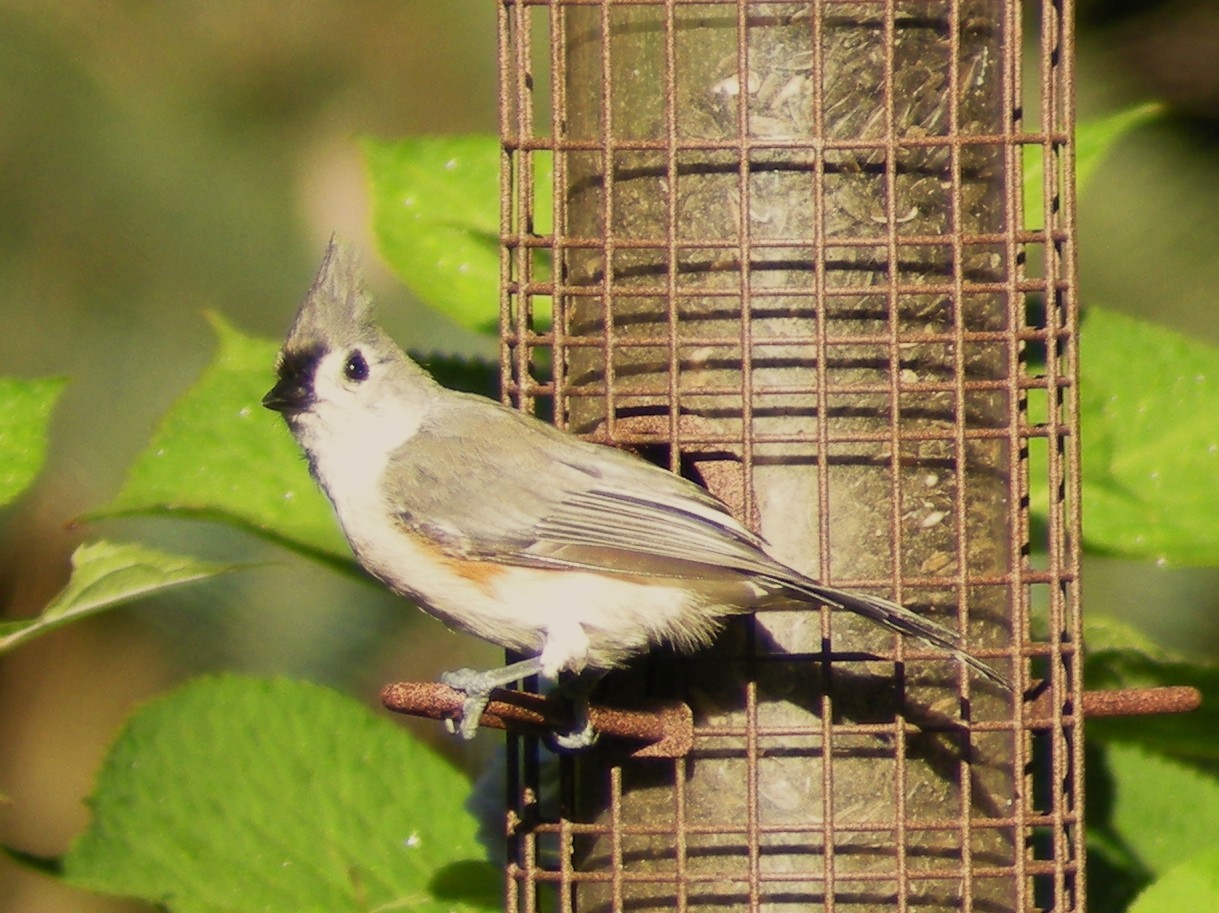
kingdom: Animalia
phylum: Chordata
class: Aves
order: Passeriformes
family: Paridae
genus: Baeolophus
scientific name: Baeolophus bicolor
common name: Tufted titmouse
